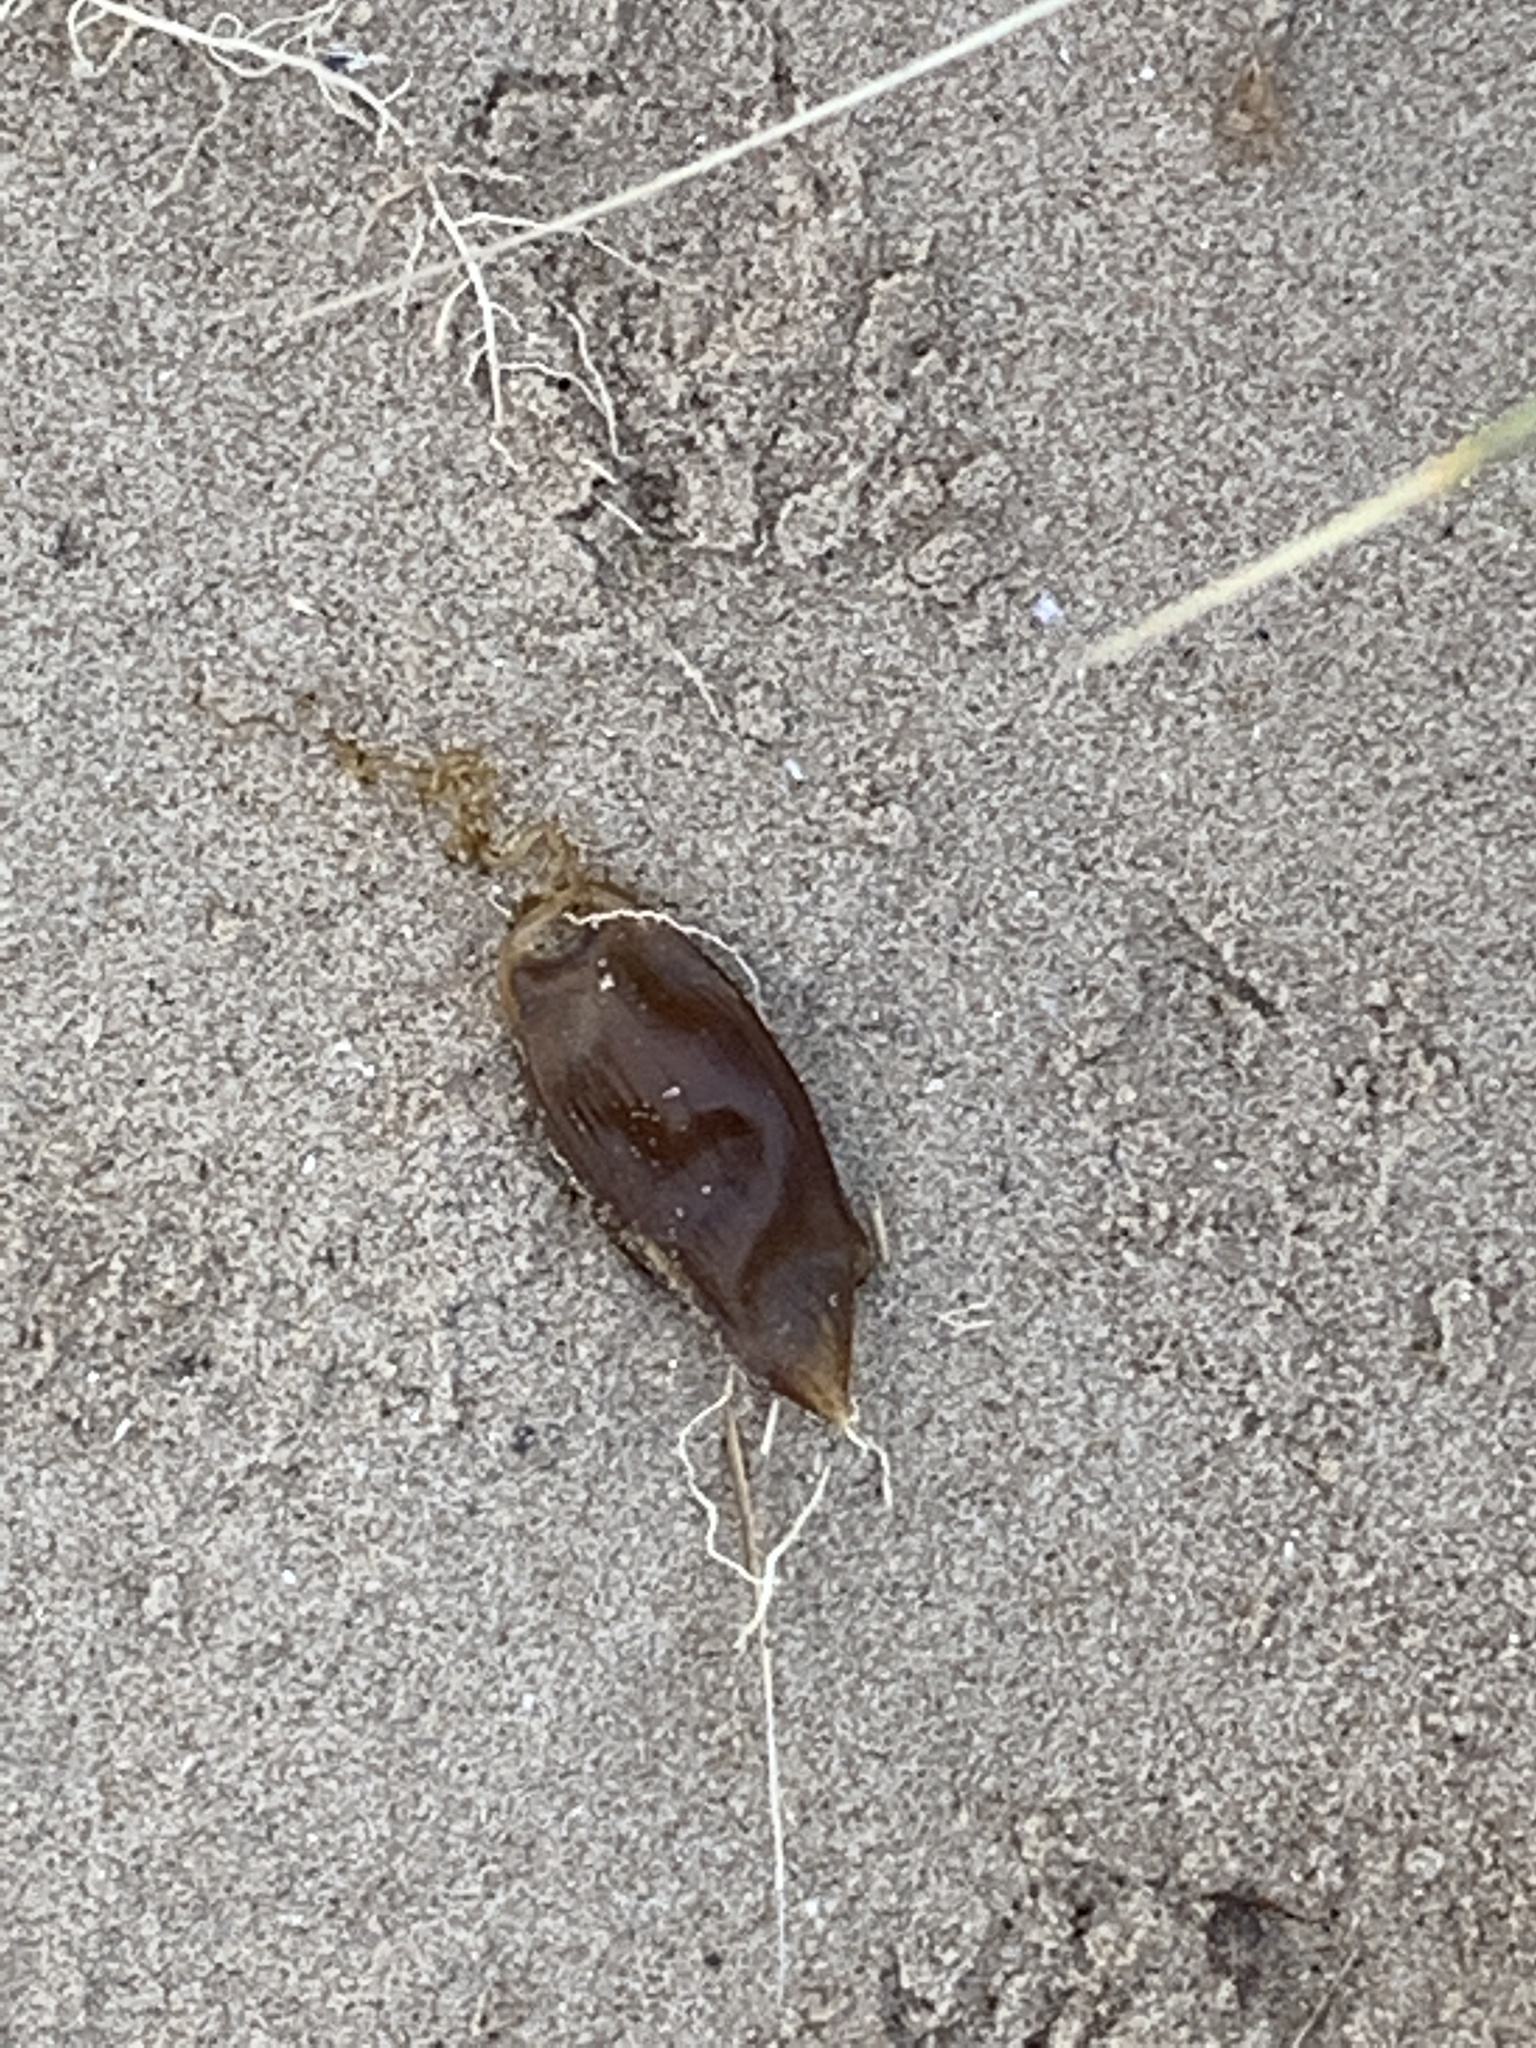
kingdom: Animalia
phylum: Chordata
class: Elasmobranchii
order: Carcharhiniformes
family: Scyliorhinidae
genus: Scyliorhinus
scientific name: Scyliorhinus canicula
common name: Lesser spotted dogfish
